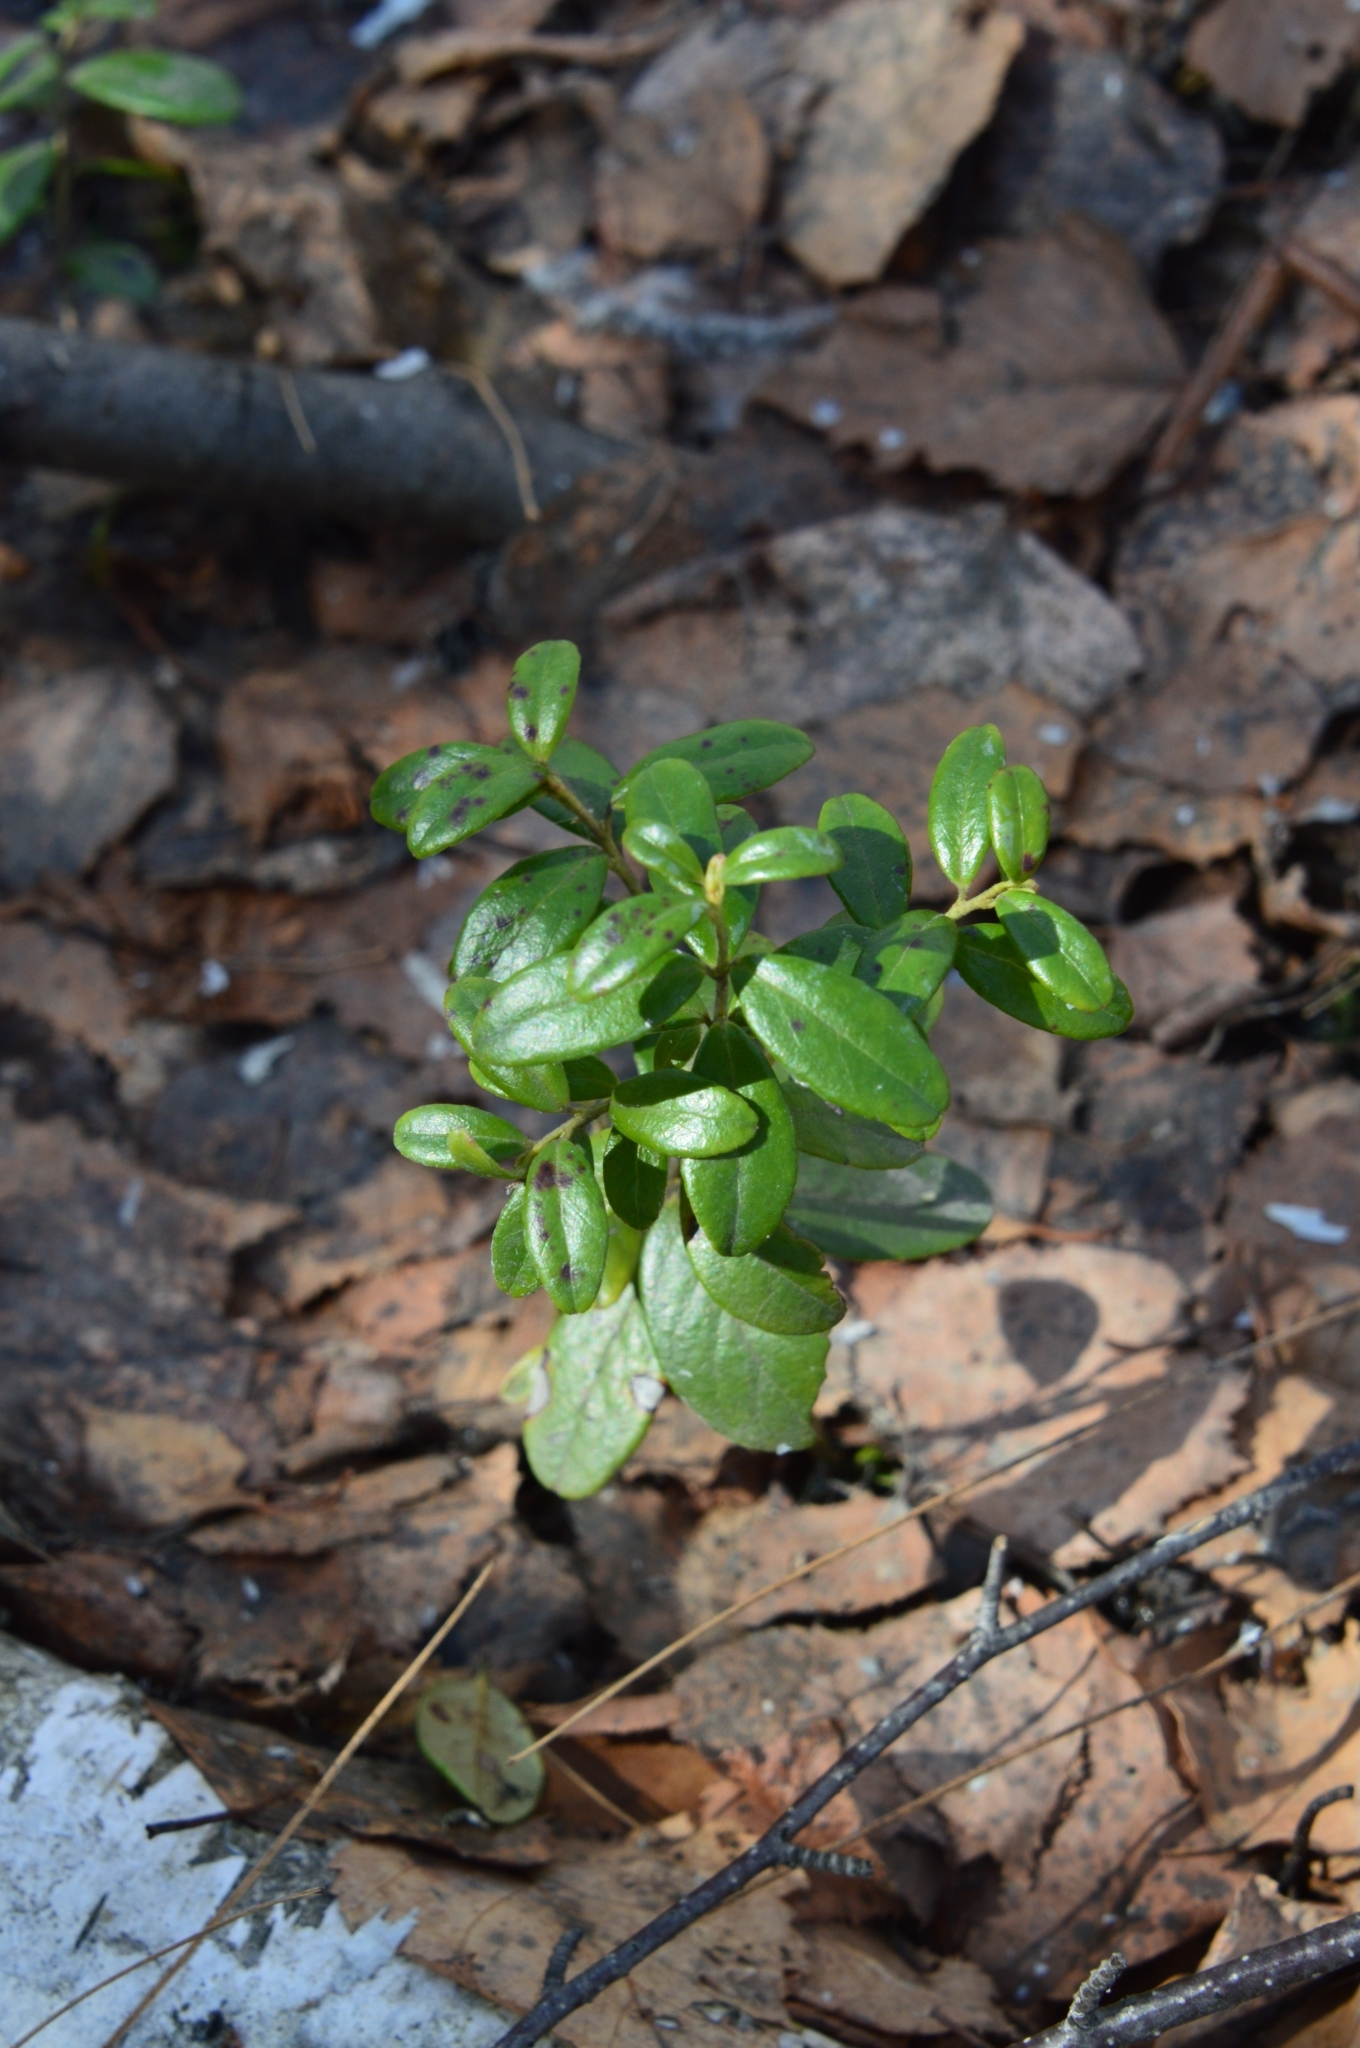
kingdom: Plantae
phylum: Tracheophyta
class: Magnoliopsida
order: Ericales
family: Ericaceae
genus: Vaccinium
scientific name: Vaccinium vitis-idaea
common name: Cowberry
